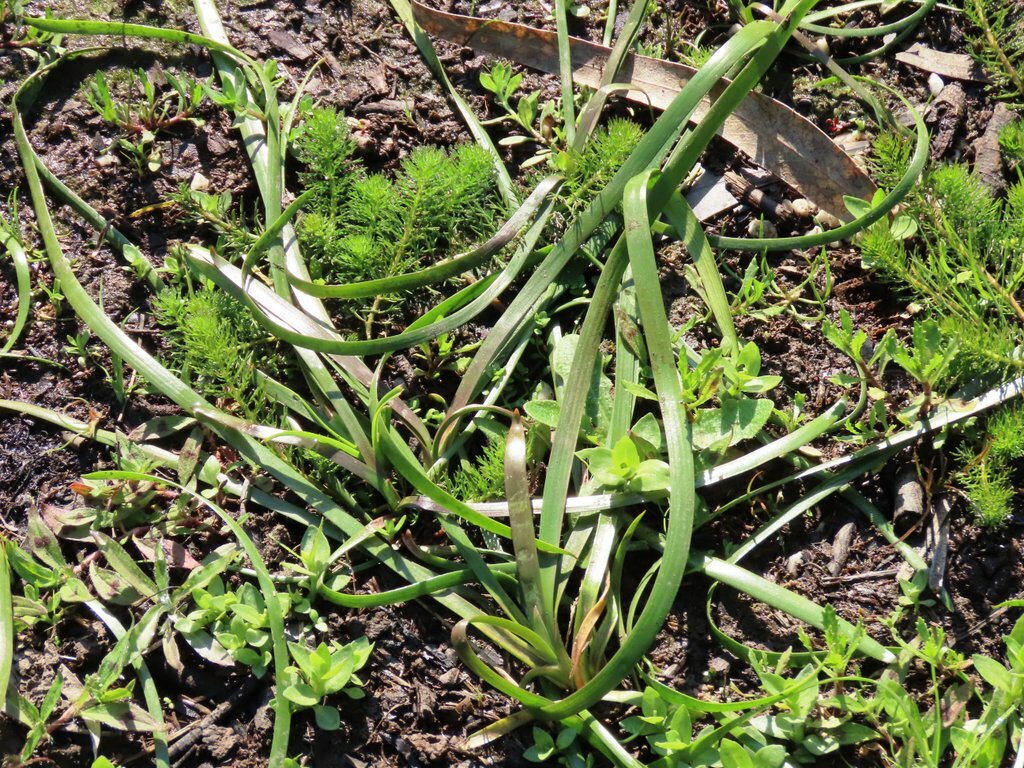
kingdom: Plantae
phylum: Tracheophyta
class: Liliopsida
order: Alismatales
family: Juncaginaceae
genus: Cycnogeton
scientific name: Cycnogeton procerum
